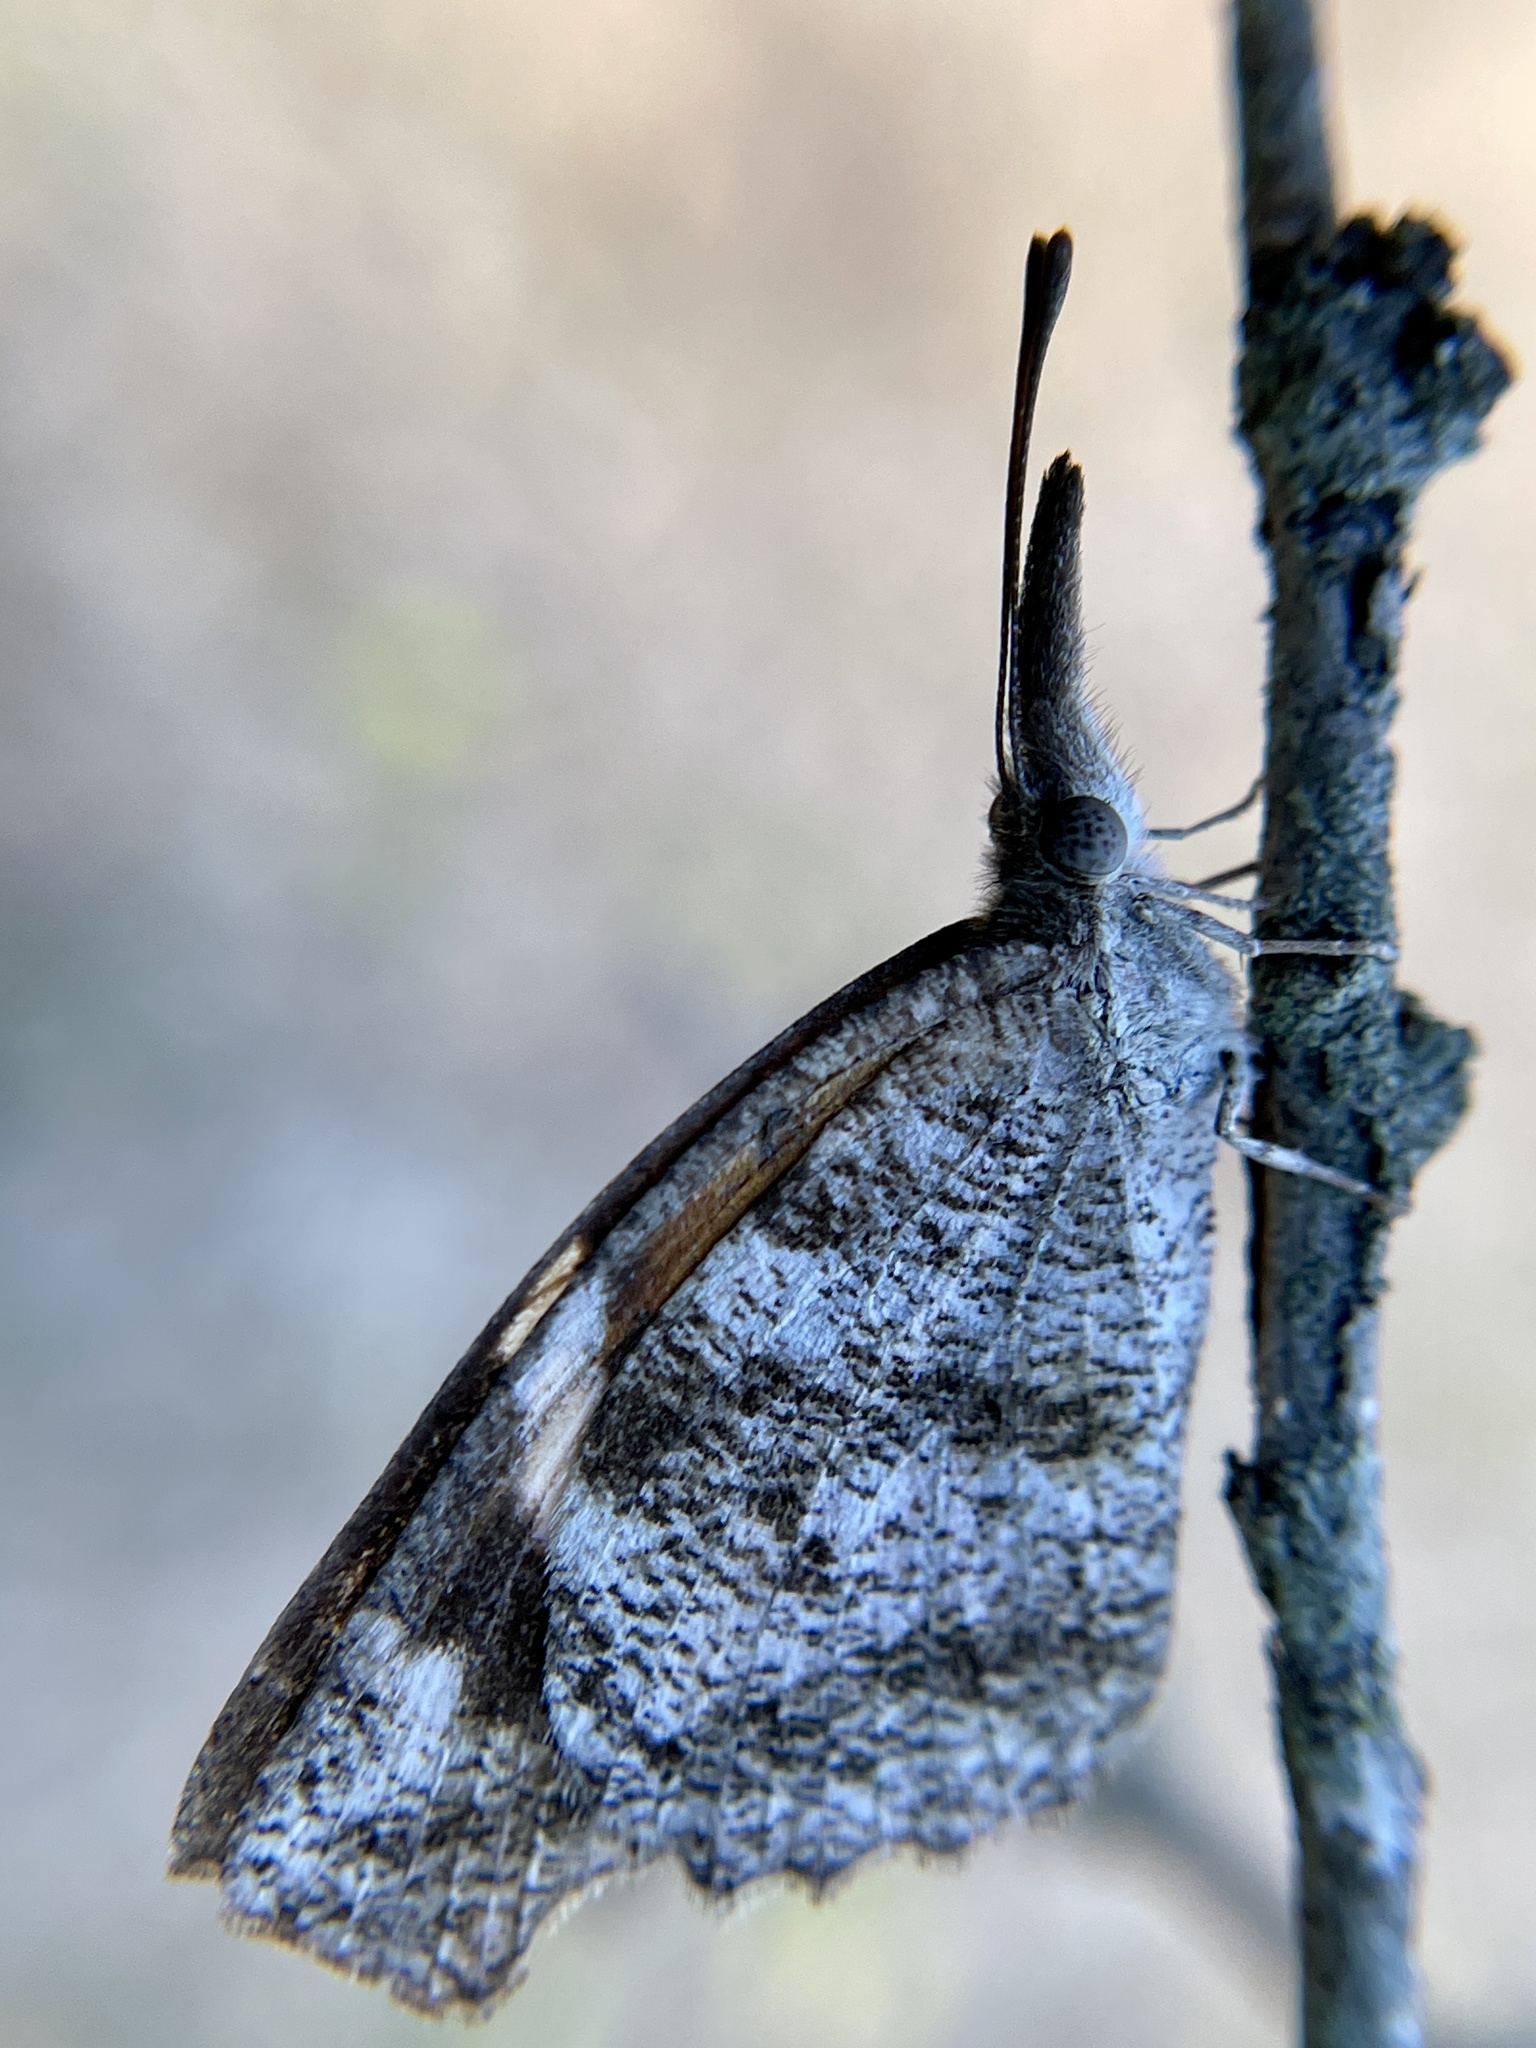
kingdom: Animalia
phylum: Arthropoda
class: Insecta
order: Lepidoptera
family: Nymphalidae
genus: Libytheana
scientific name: Libytheana carinenta
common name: American snout
